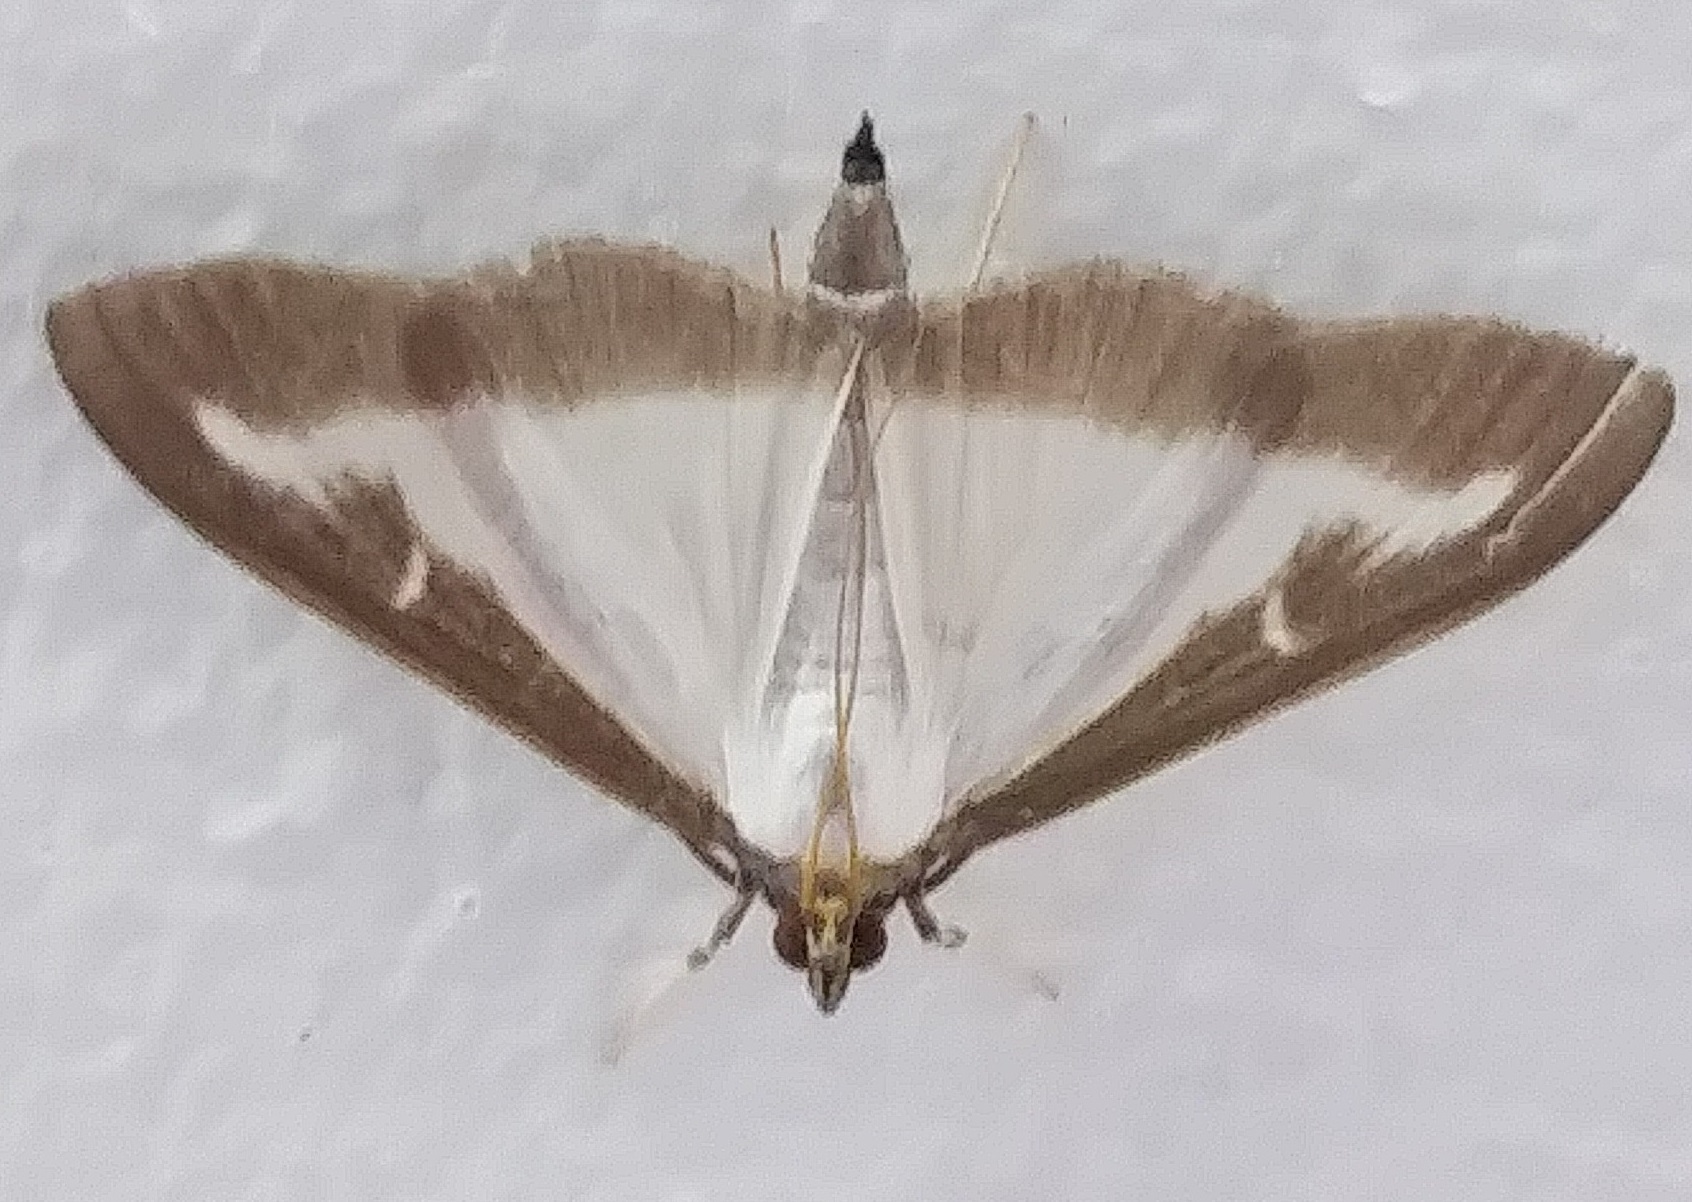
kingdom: Animalia
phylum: Arthropoda
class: Insecta
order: Lepidoptera
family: Crambidae
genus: Cydalima
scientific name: Cydalima perspectalis
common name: Box tree moth
